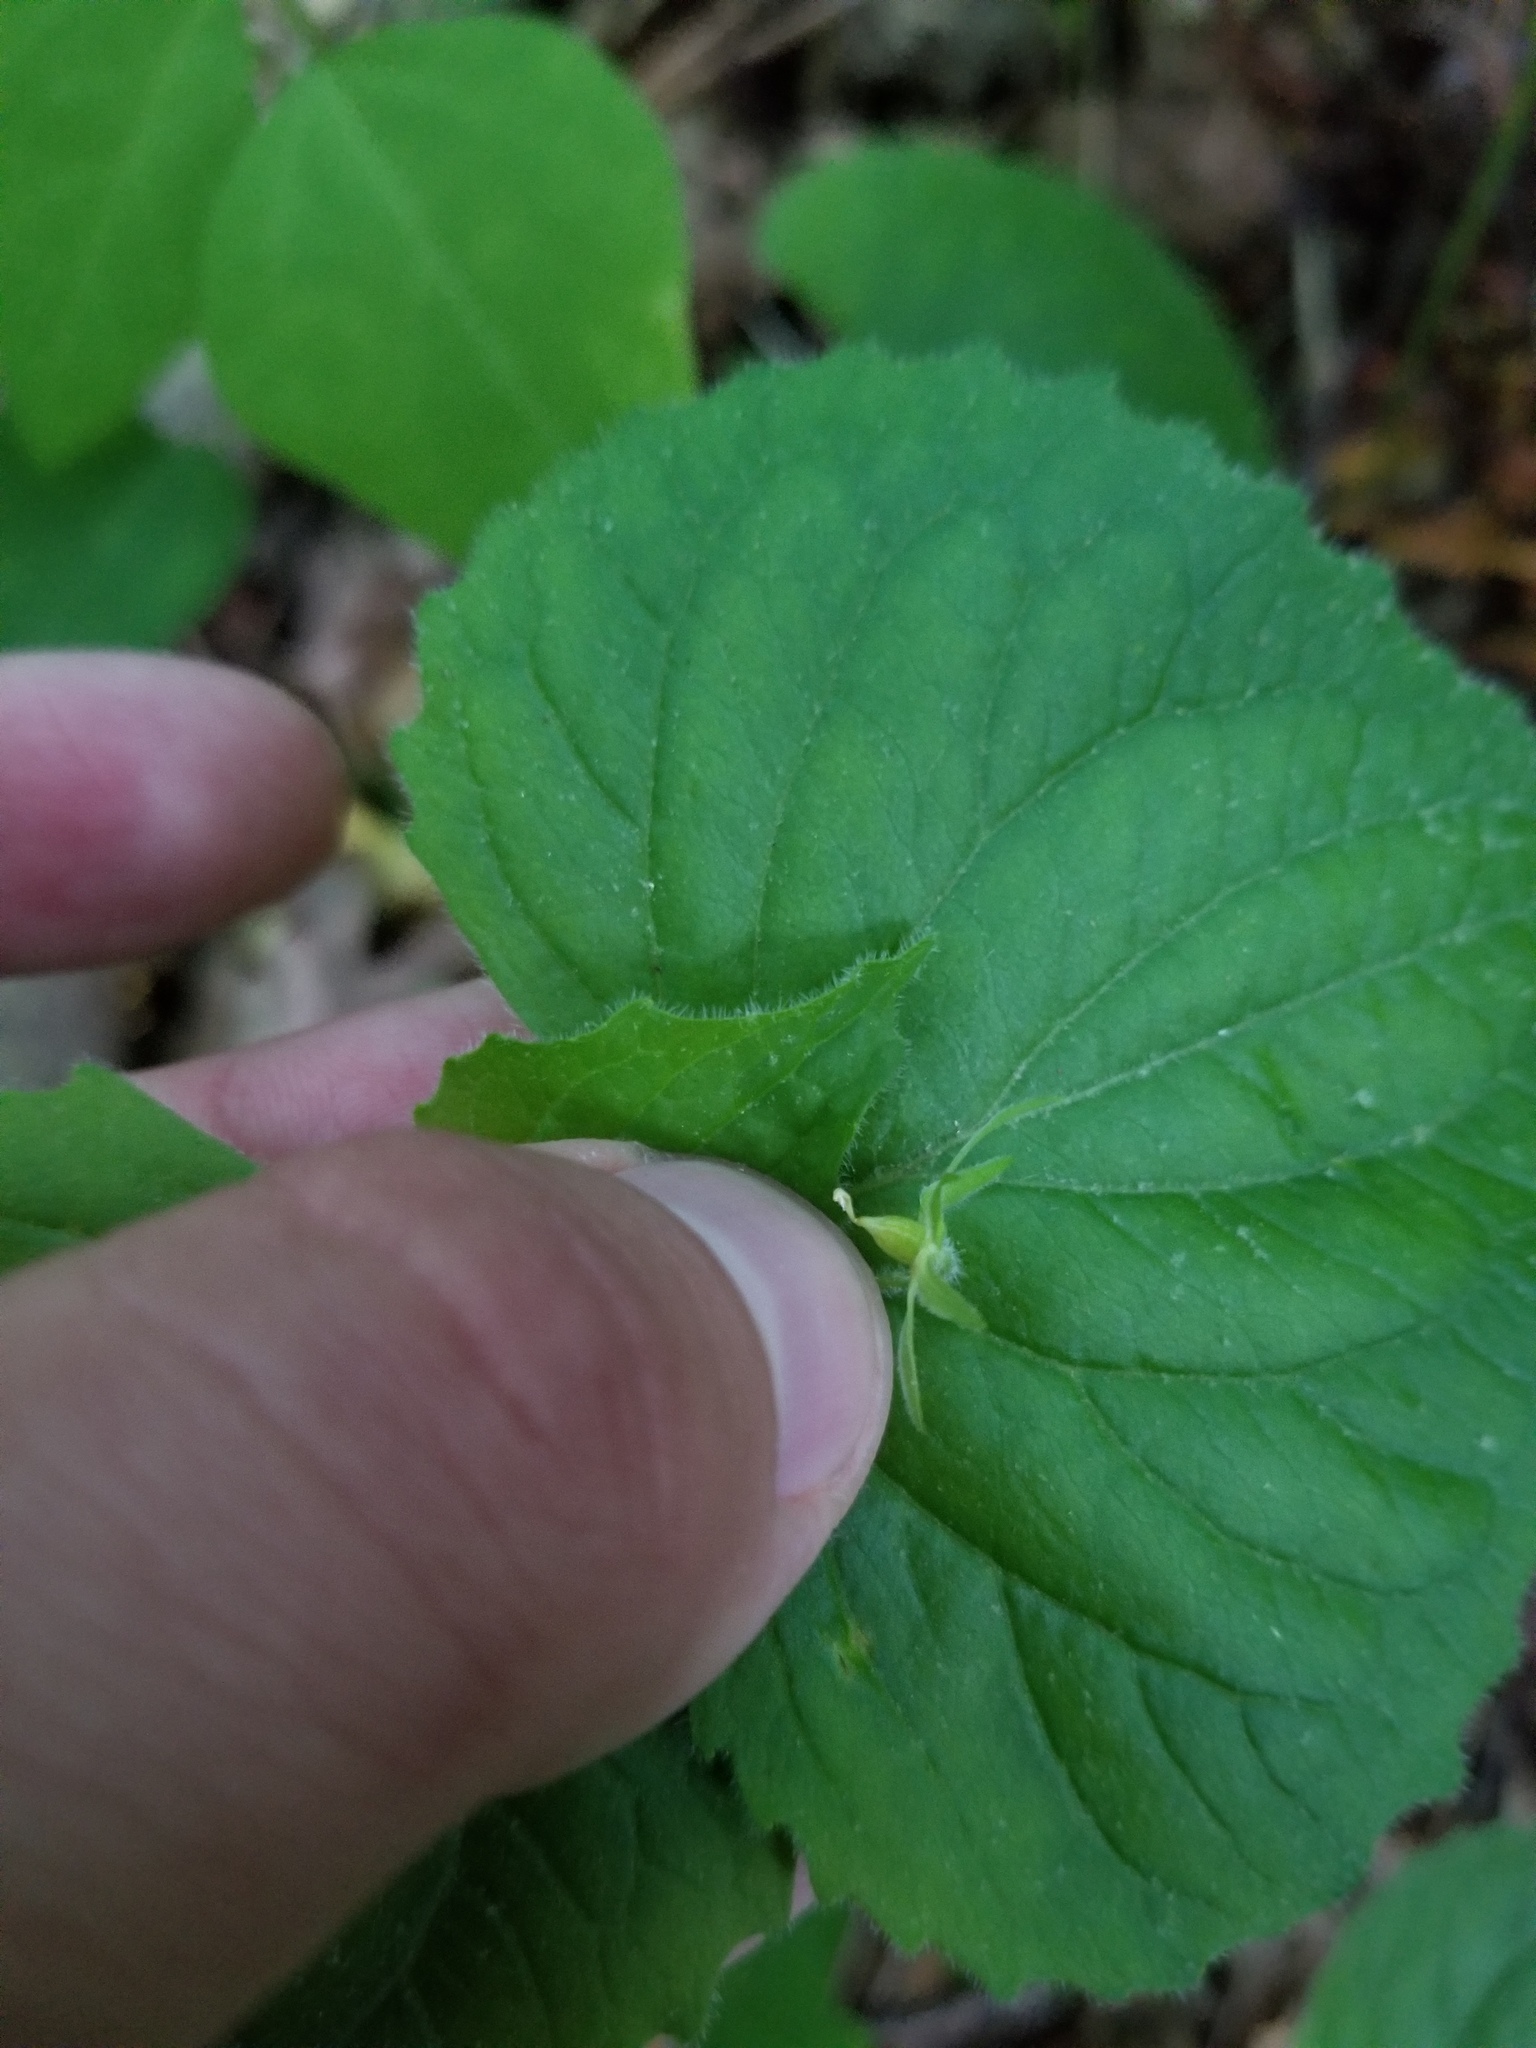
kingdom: Plantae
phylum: Tracheophyta
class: Magnoliopsida
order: Malpighiales
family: Violaceae
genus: Viola
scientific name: Viola pubescens
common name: Yellow forest violet
